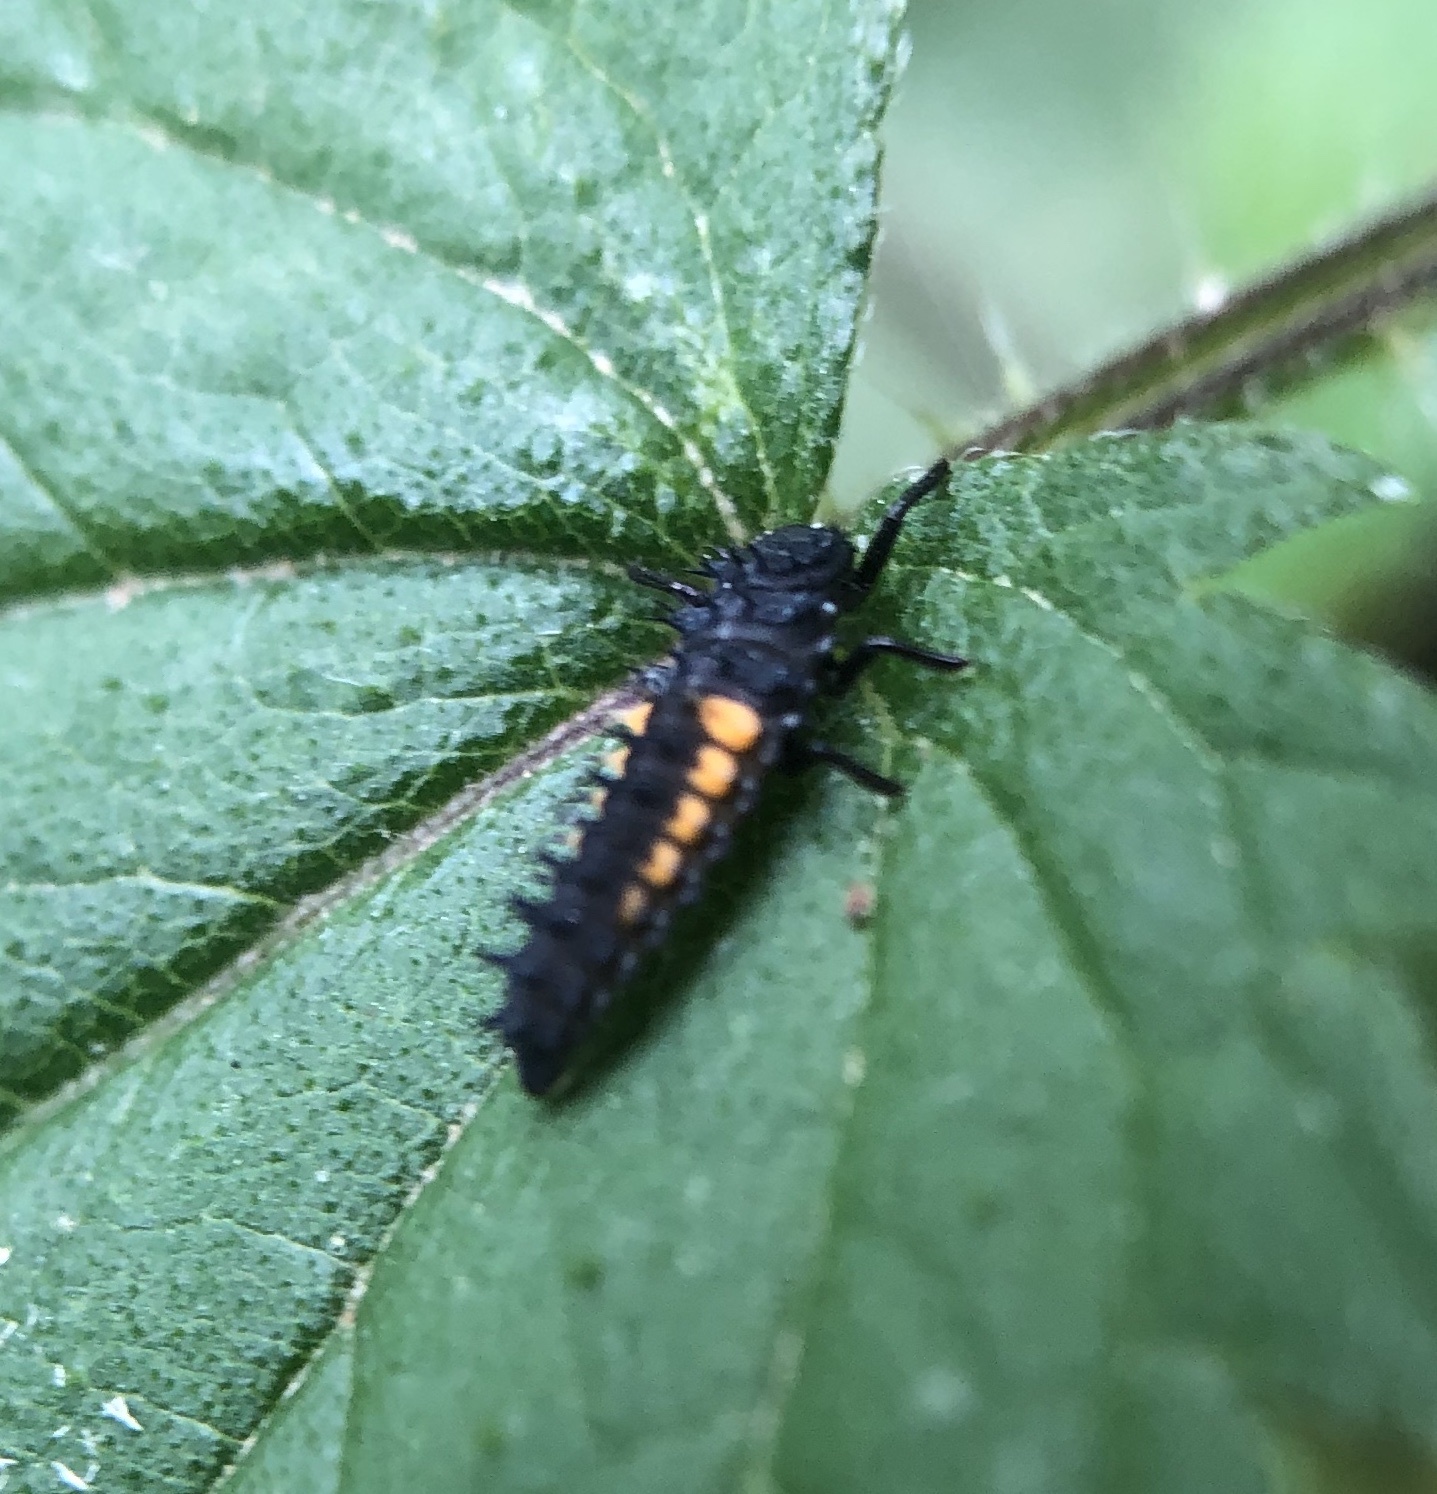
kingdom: Animalia
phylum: Arthropoda
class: Insecta
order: Coleoptera
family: Coccinellidae
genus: Harmonia
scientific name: Harmonia axyridis
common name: Harlequin ladybird
